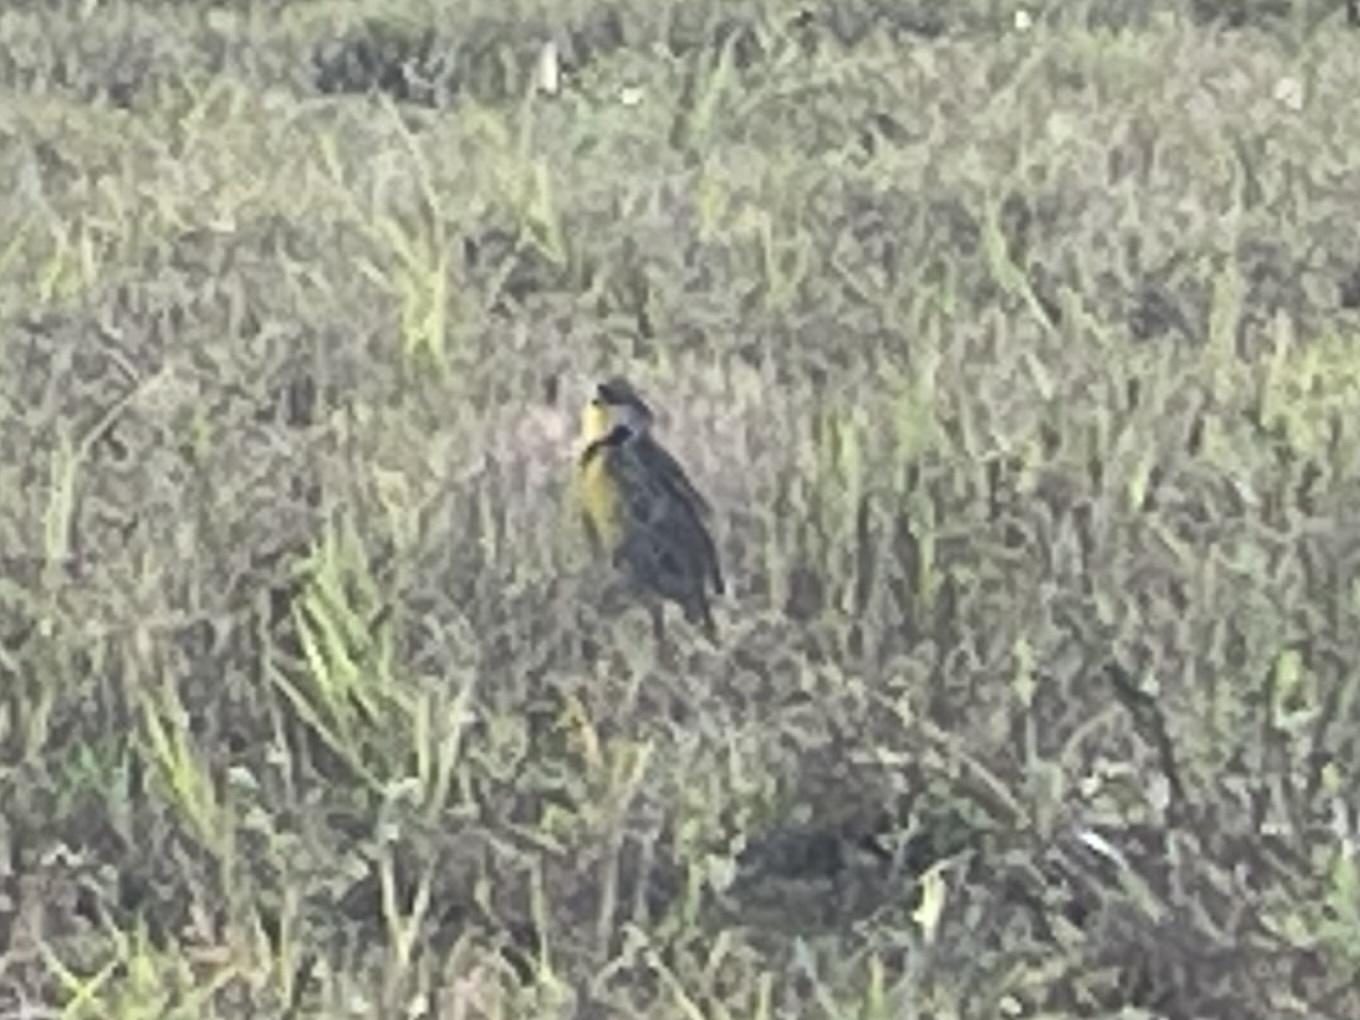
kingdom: Animalia
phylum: Chordata
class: Aves
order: Passeriformes
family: Icteridae
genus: Sturnella
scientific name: Sturnella magna
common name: Eastern meadowlark
